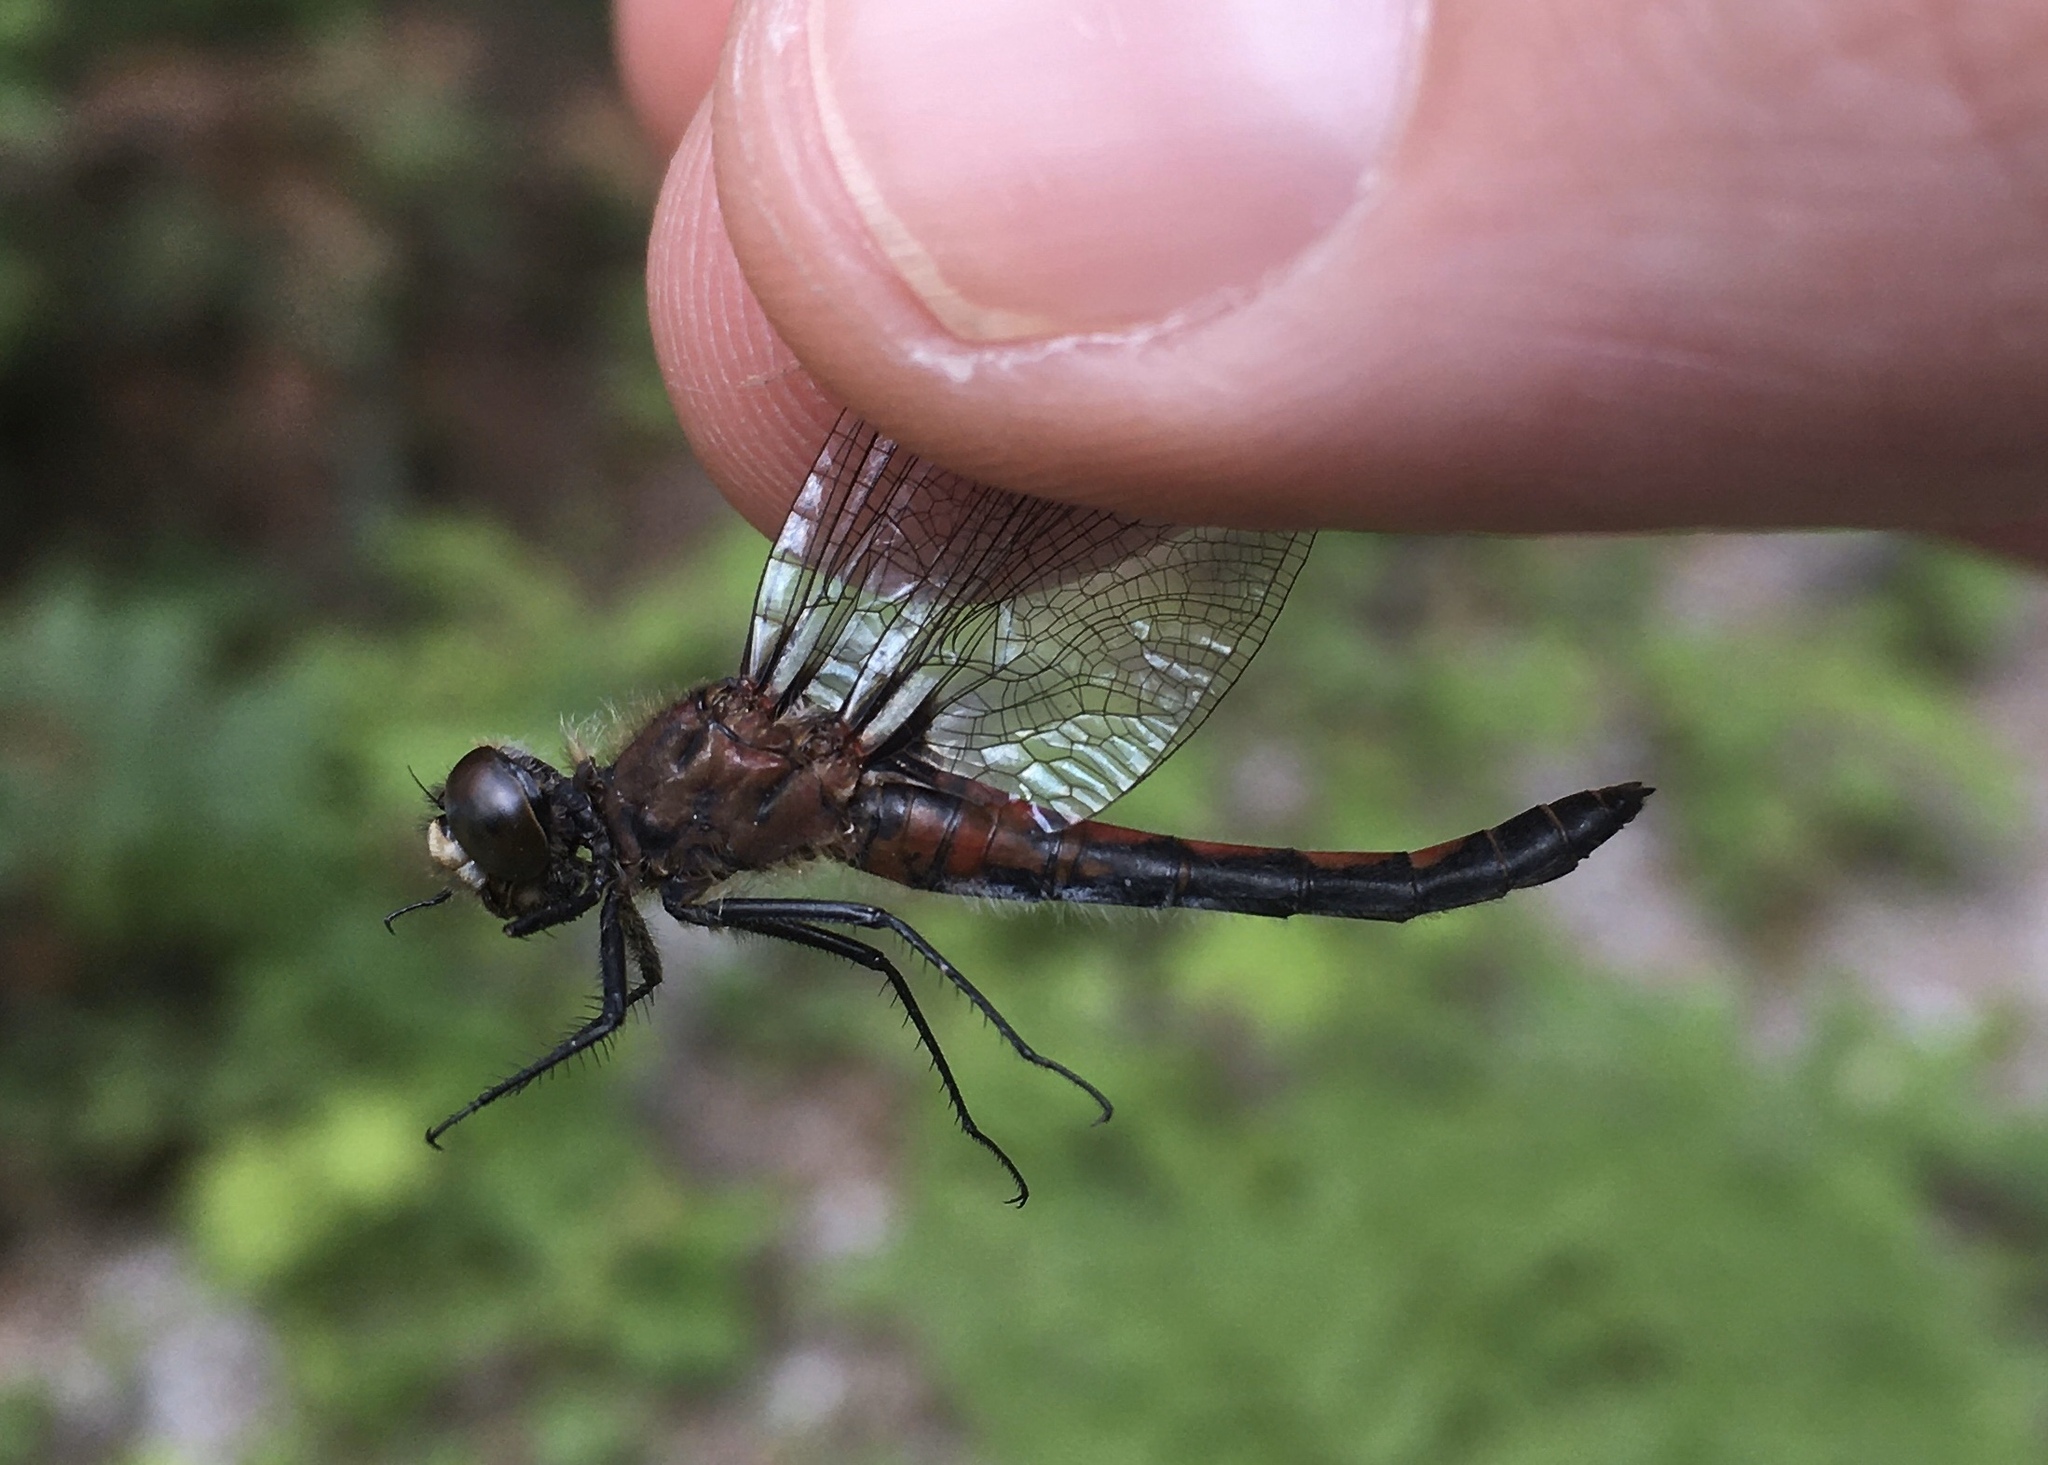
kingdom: Animalia
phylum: Arthropoda
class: Insecta
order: Odonata
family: Libellulidae
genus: Leucorrhinia
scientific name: Leucorrhinia hudsonica
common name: Hudsonian whiteface
